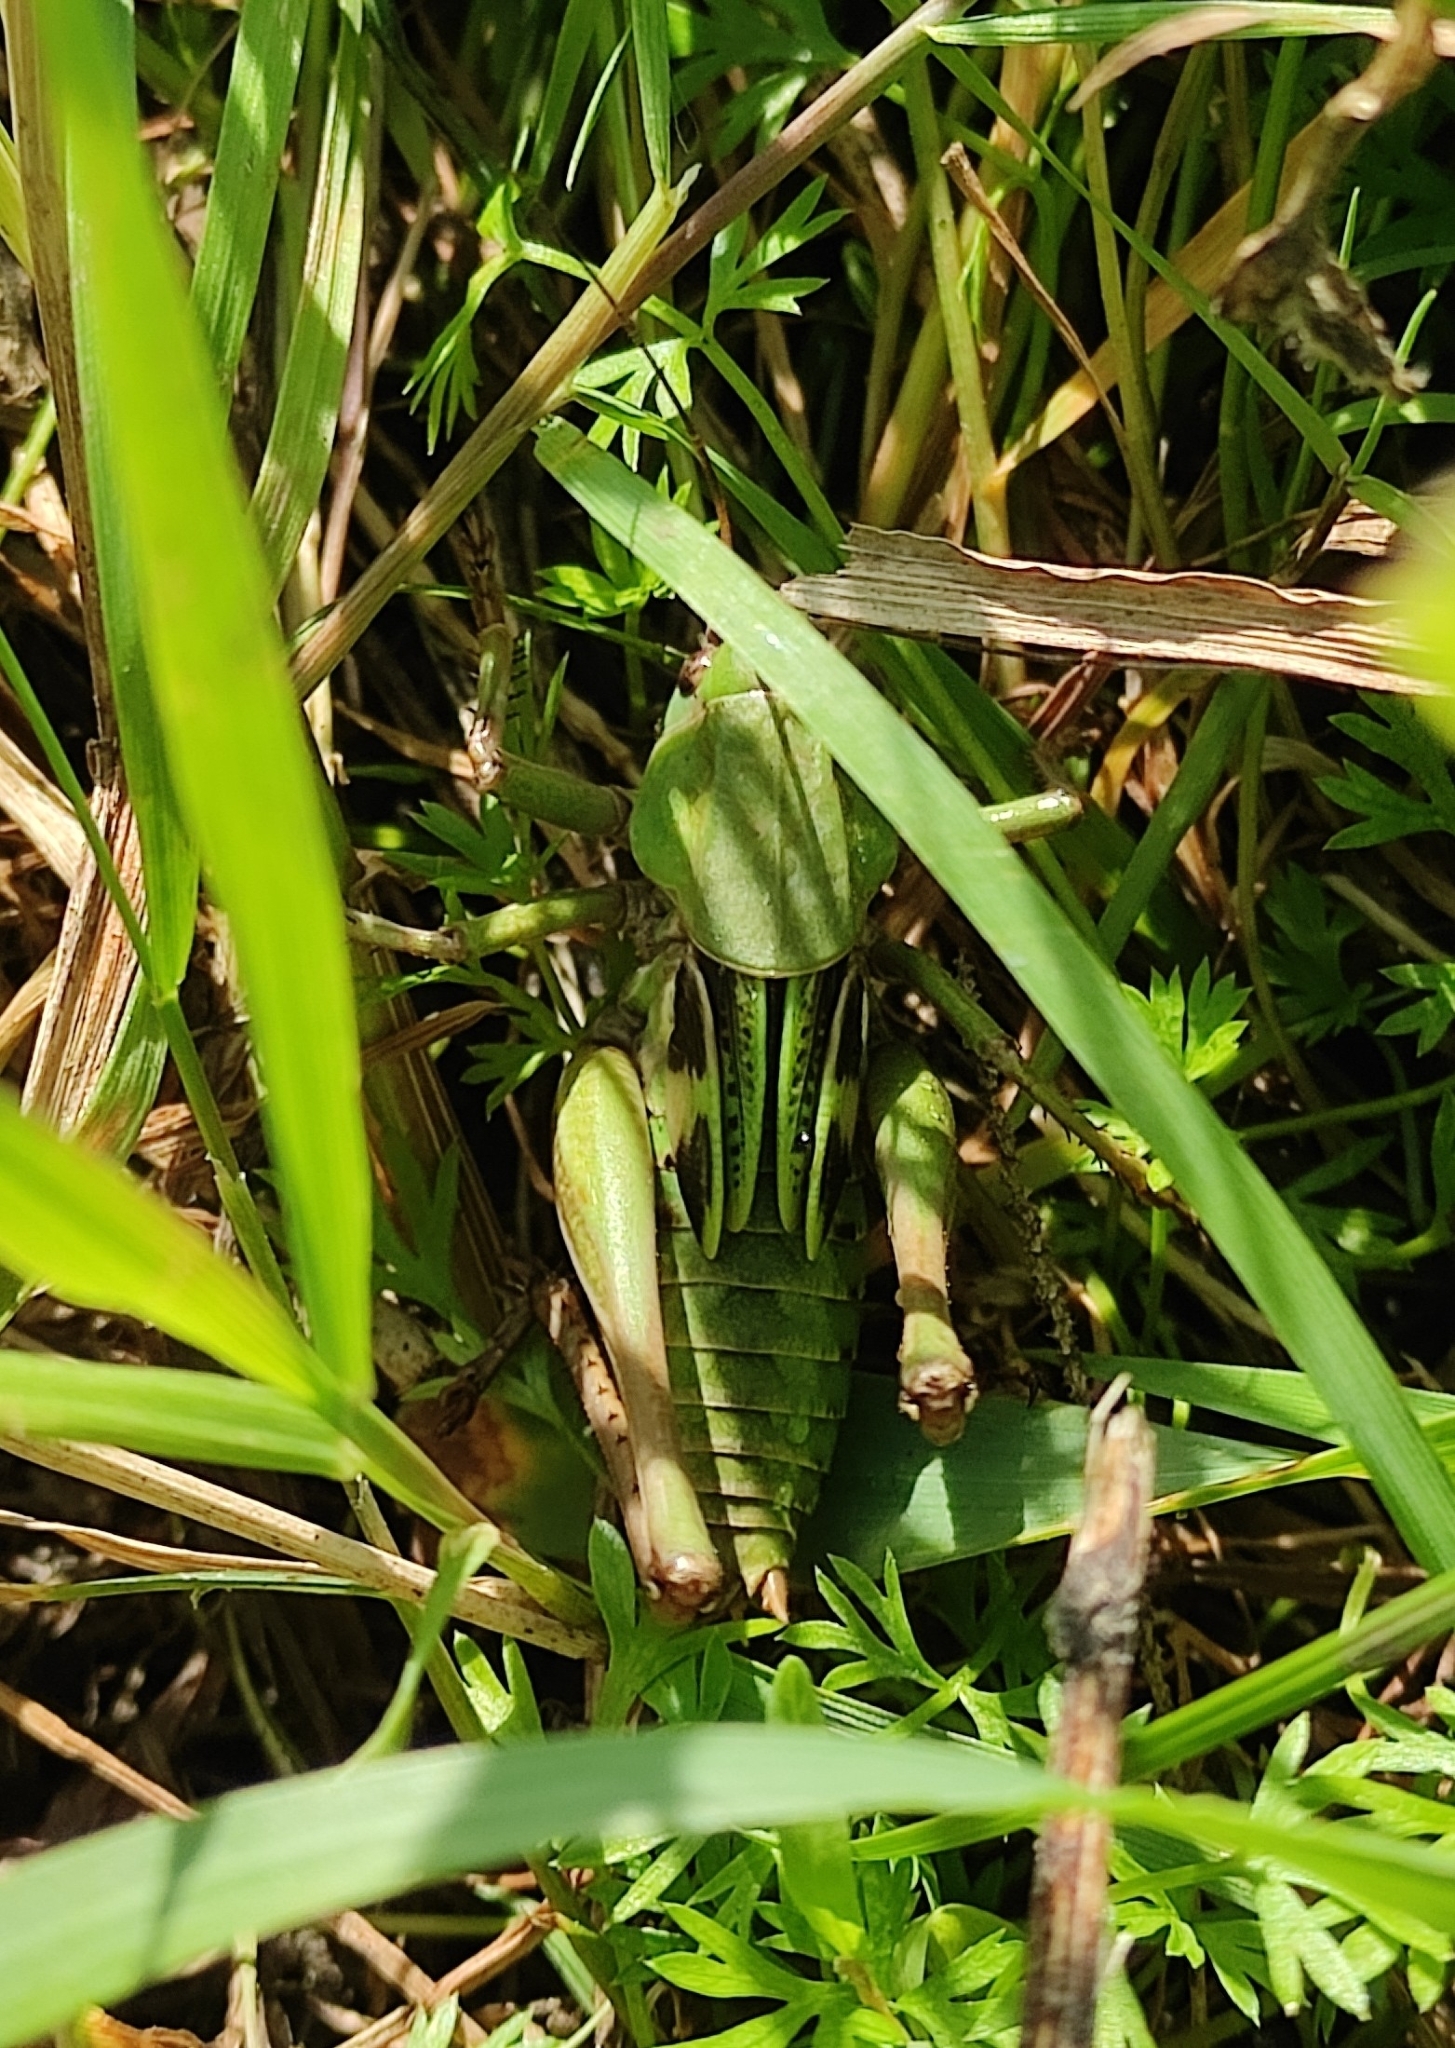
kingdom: Animalia
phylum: Arthropoda
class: Insecta
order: Orthoptera
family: Tettigoniidae
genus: Decticus
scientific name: Decticus verrucivorus
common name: Wart-biter
